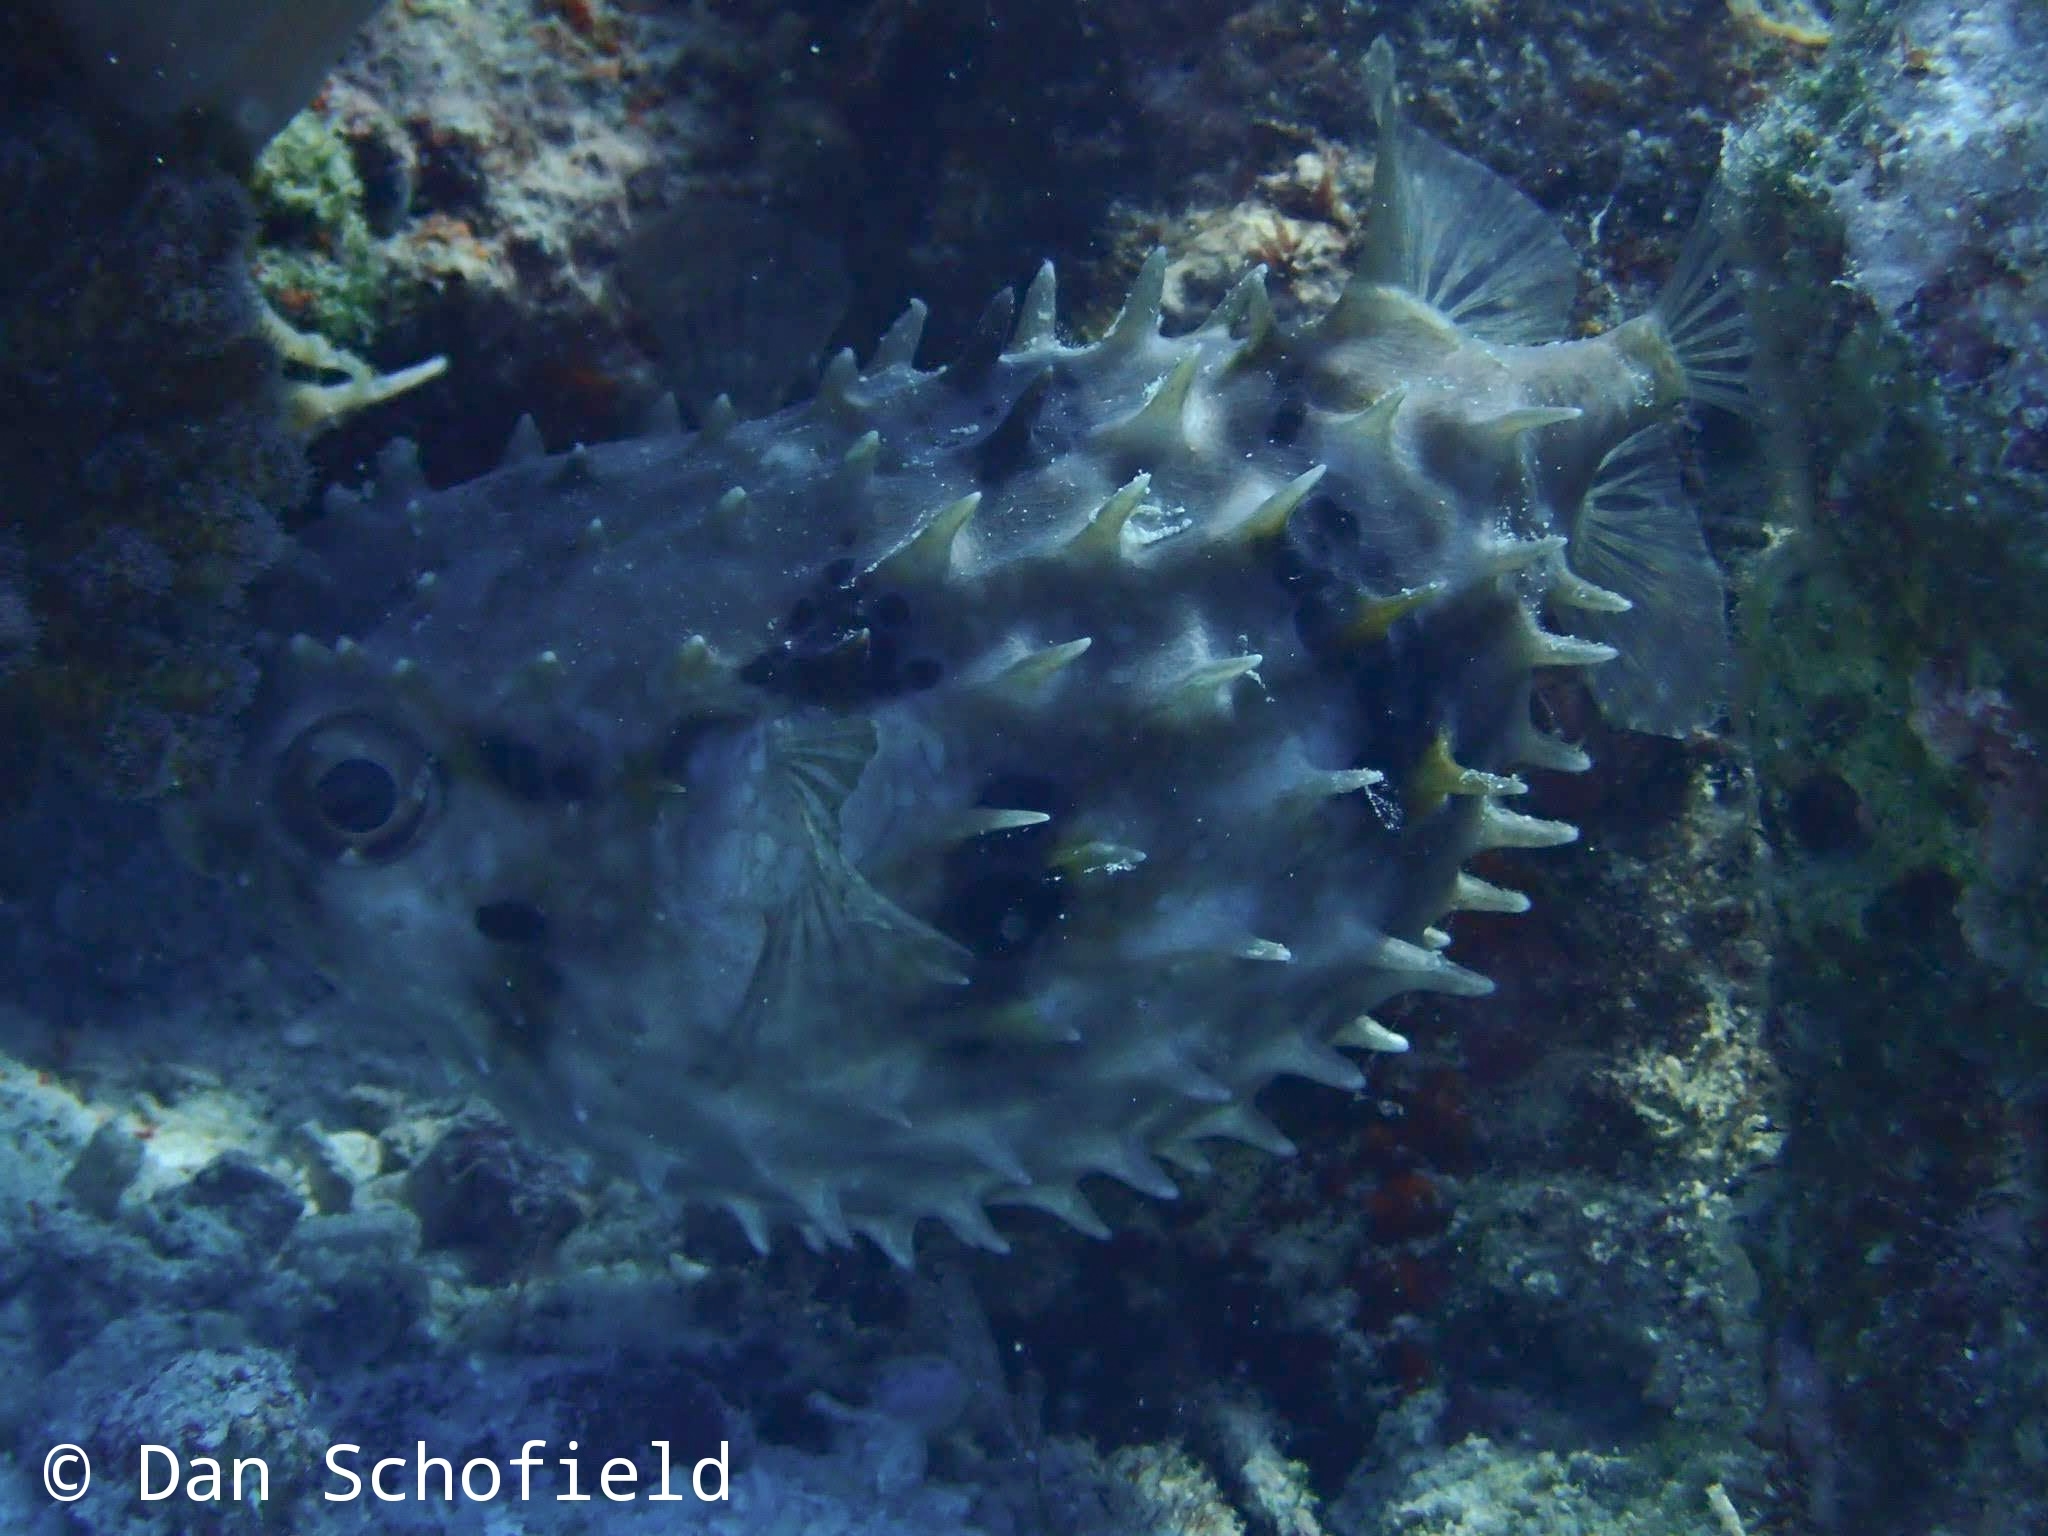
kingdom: Animalia
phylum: Chordata
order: Tetraodontiformes
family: Diodontidae
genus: Cyclichthys
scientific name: Cyclichthys orbicularis
